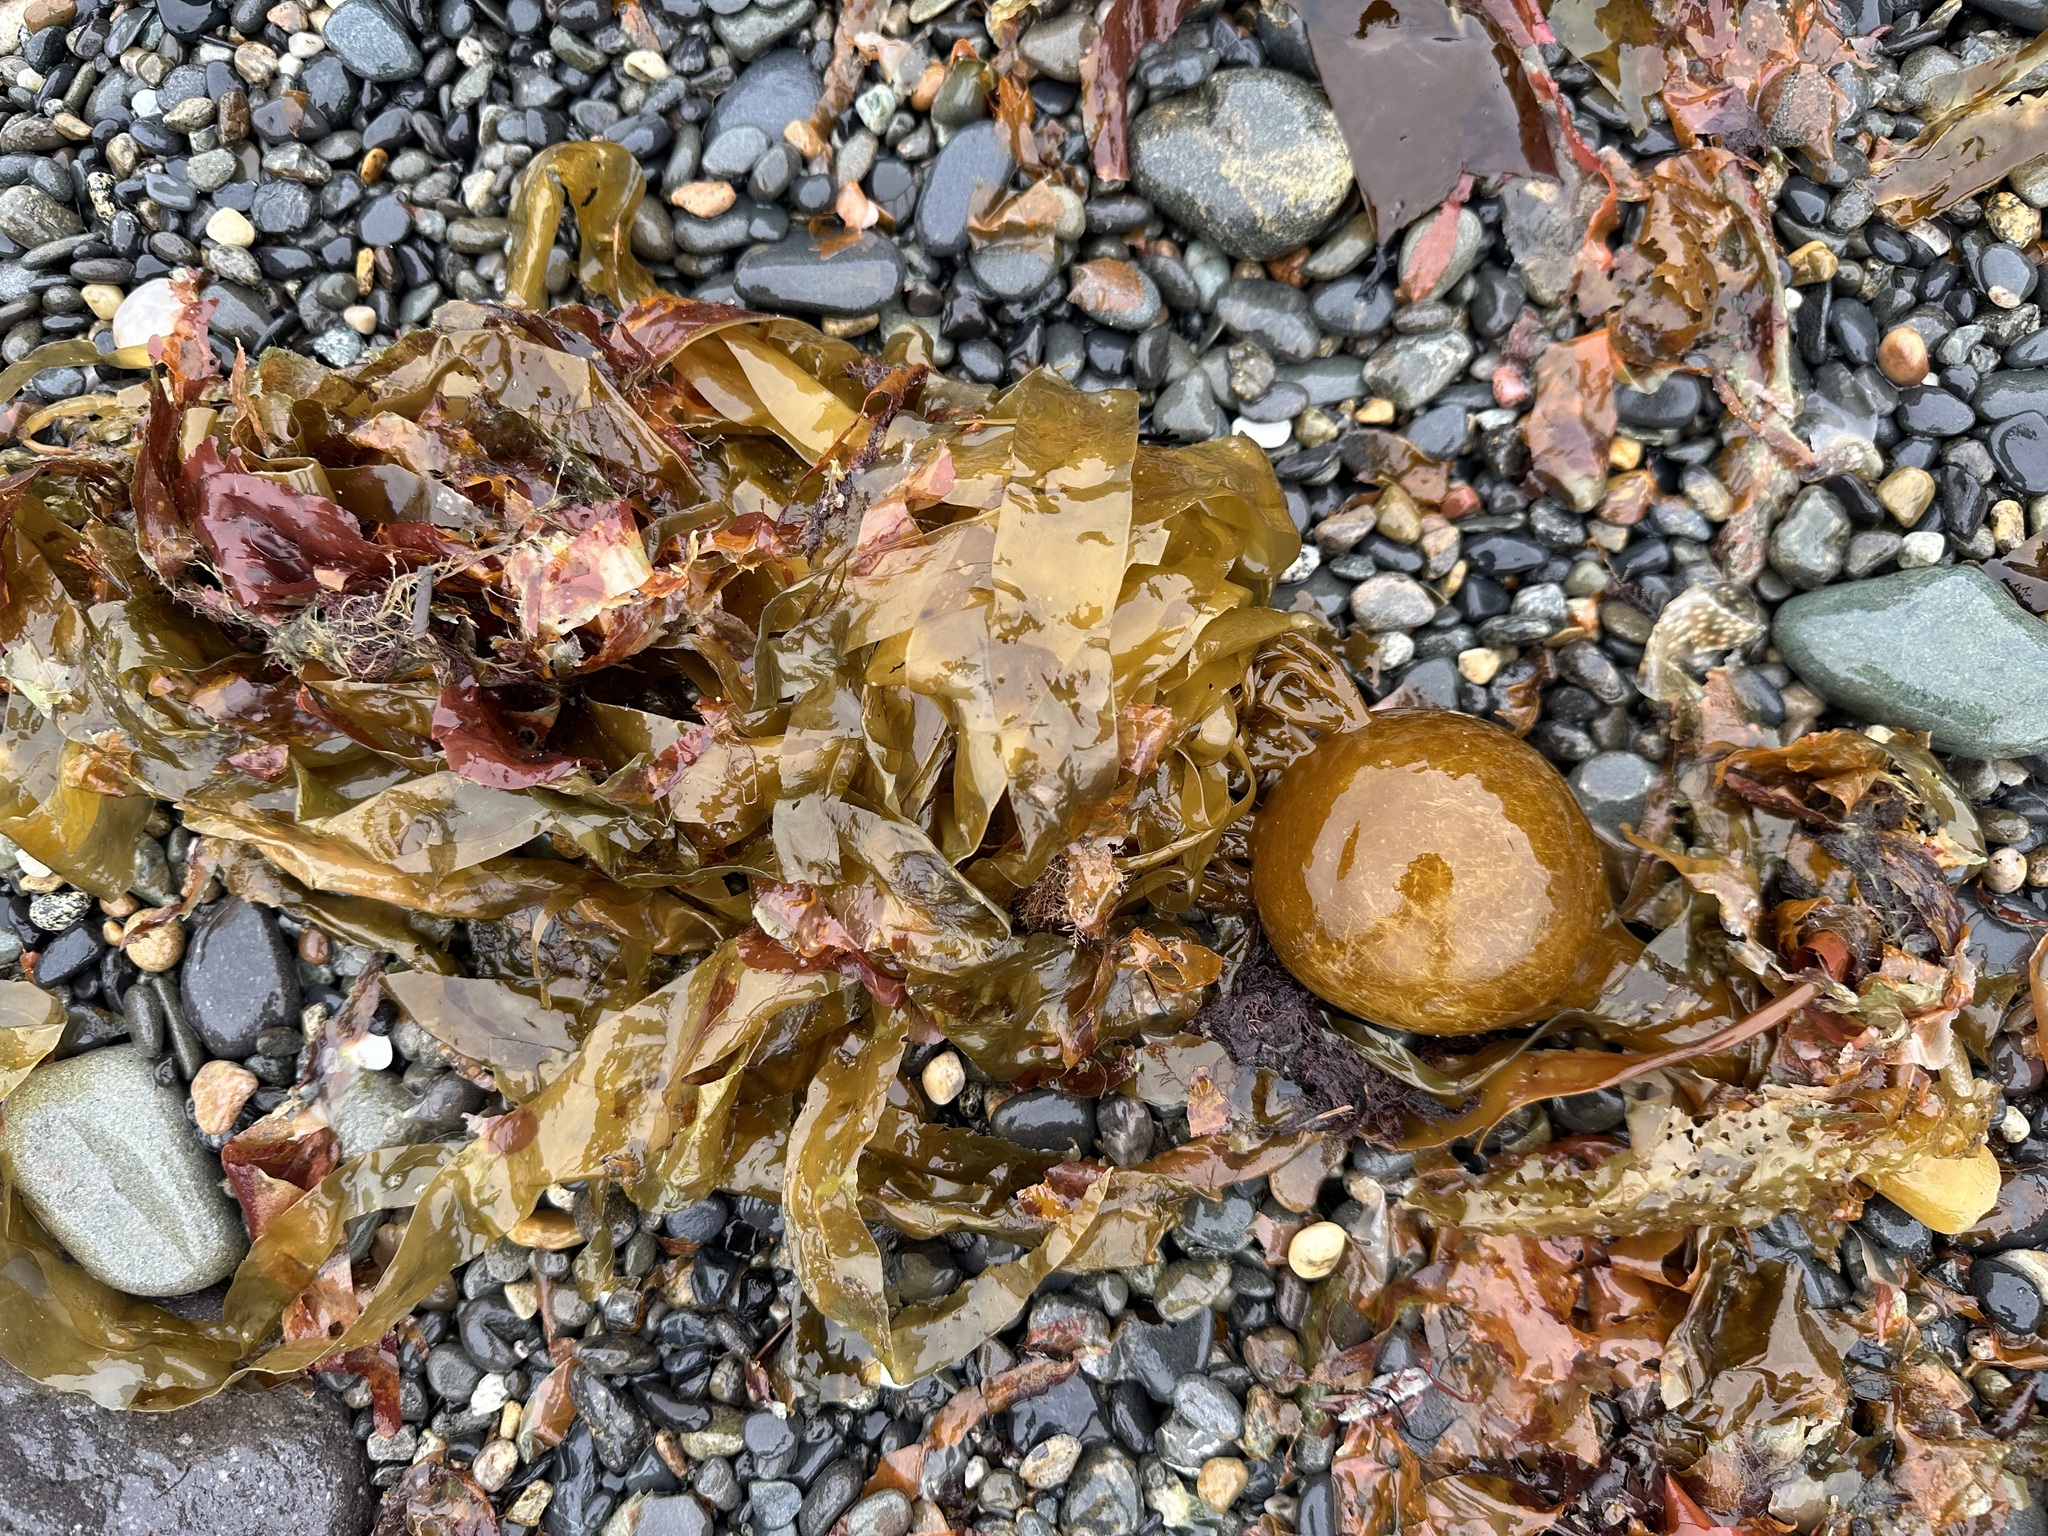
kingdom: Chromista
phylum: Ochrophyta
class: Phaeophyceae
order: Laminariales
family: Laminariaceae
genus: Nereocystis
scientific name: Nereocystis luetkeana
